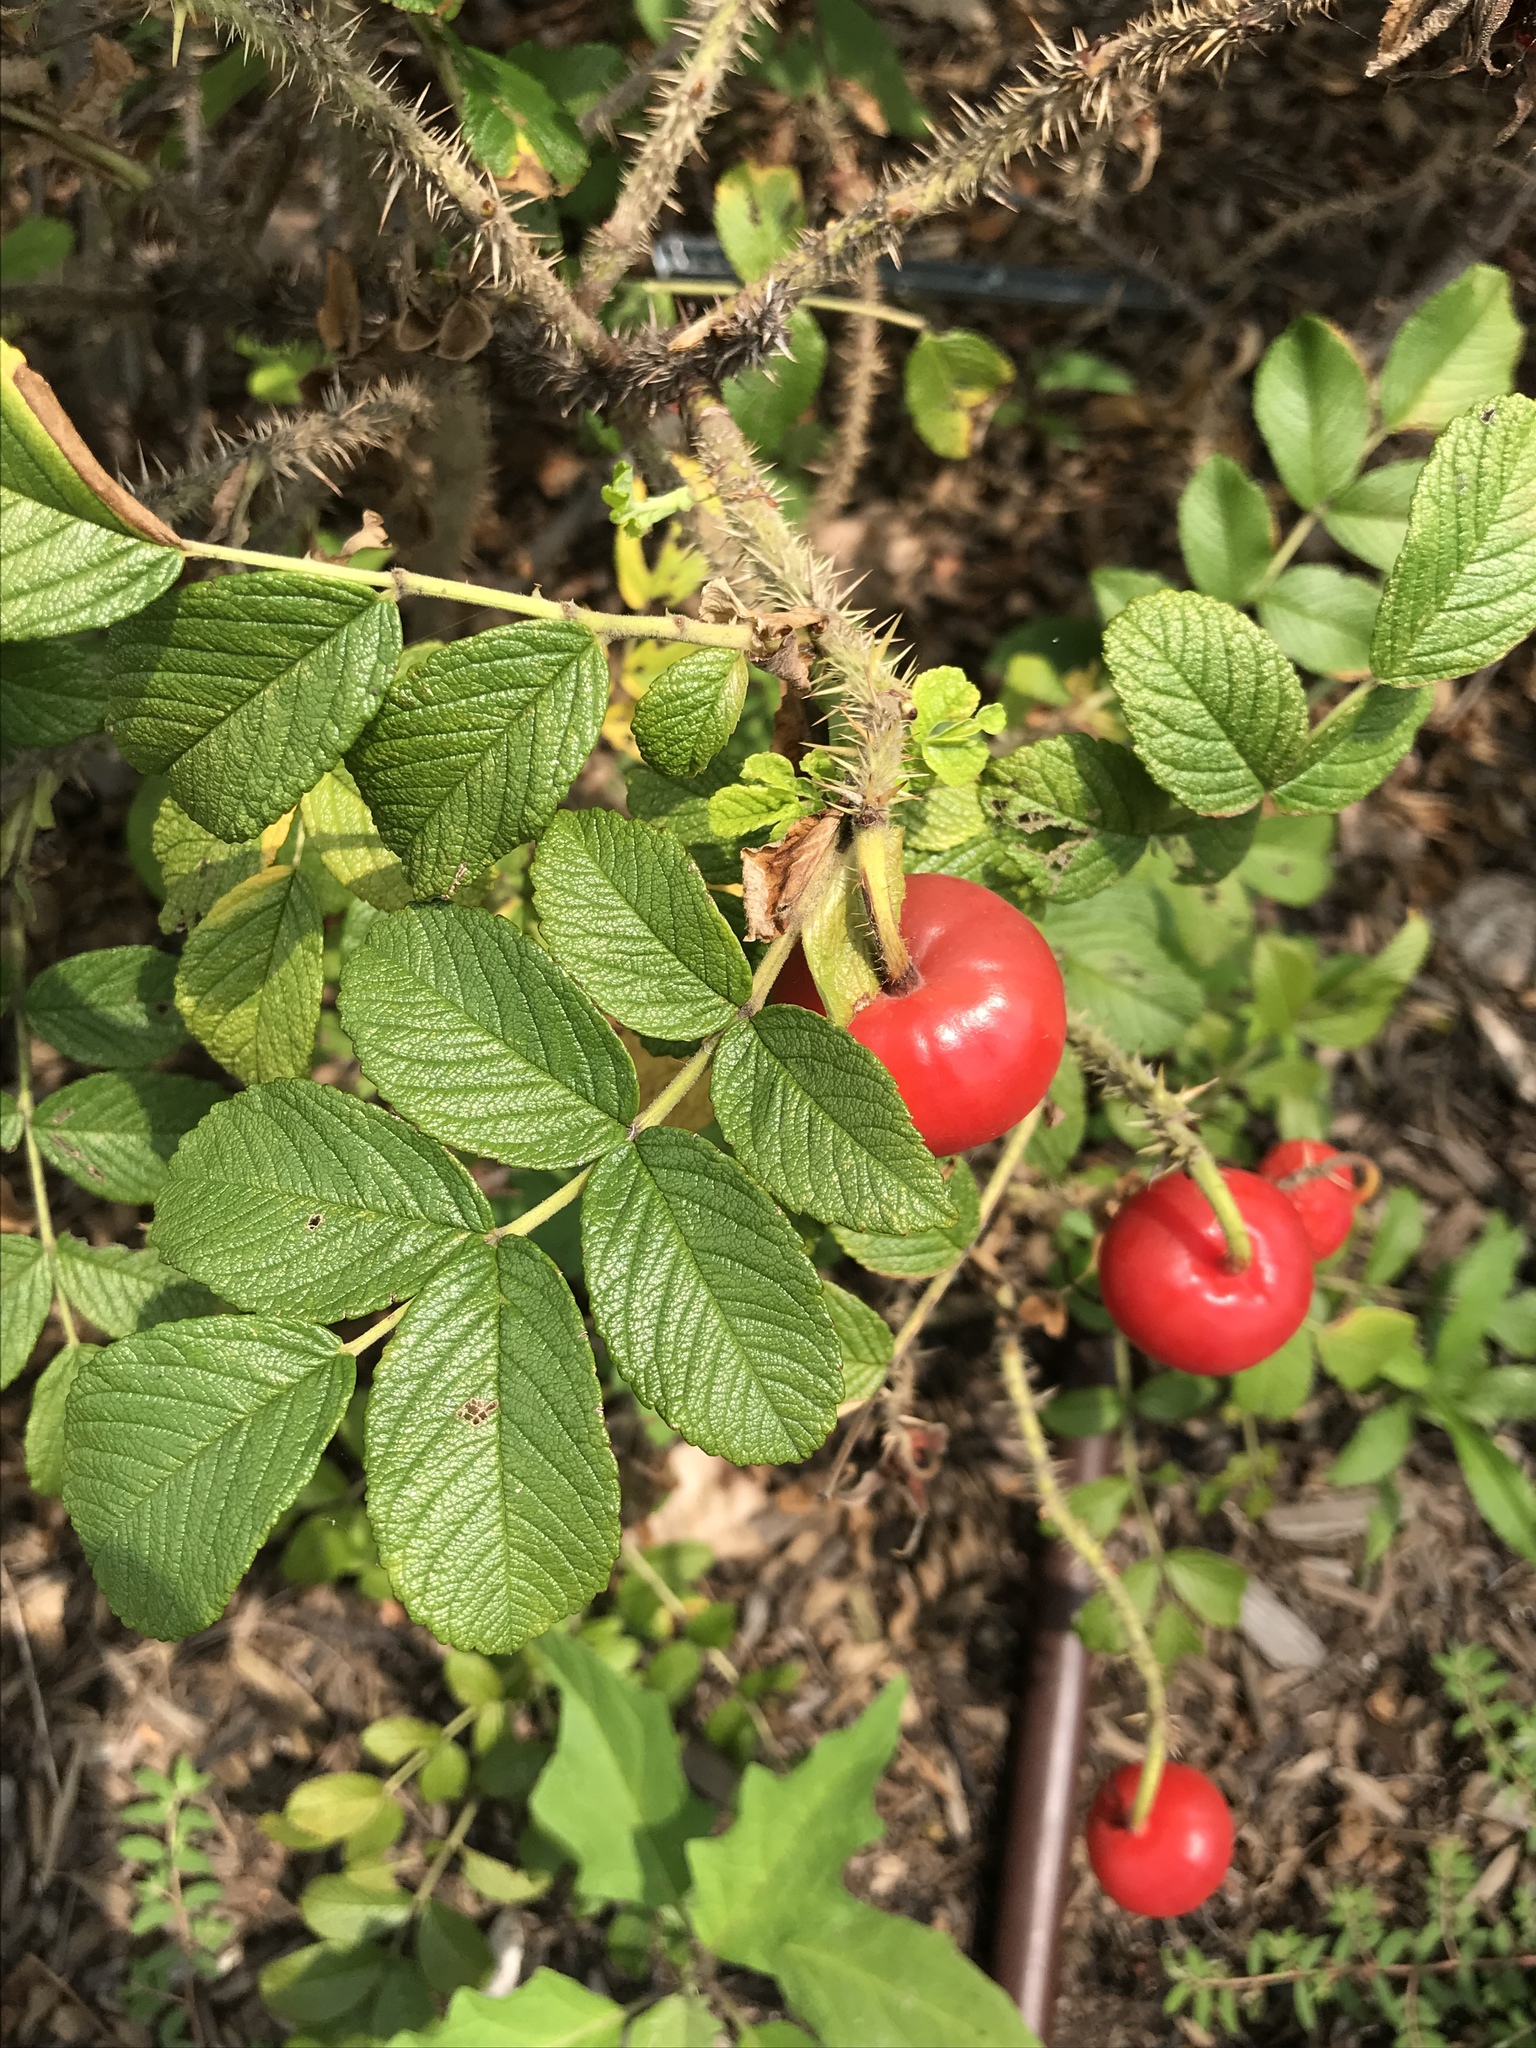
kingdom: Plantae
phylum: Tracheophyta
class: Magnoliopsida
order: Rosales
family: Rosaceae
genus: Rosa
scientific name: Rosa rugosa
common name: Japanese rose
